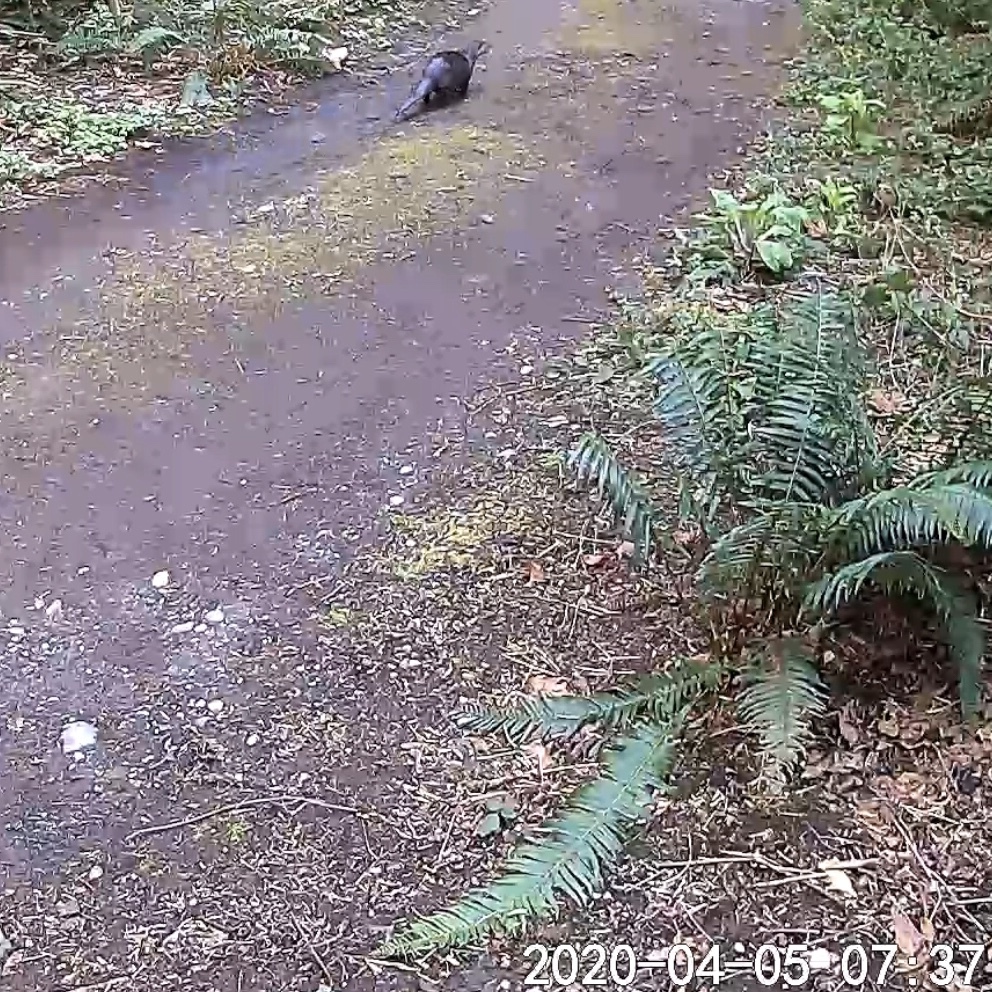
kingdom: Animalia
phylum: Chordata
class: Mammalia
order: Carnivora
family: Mustelidae
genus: Lontra
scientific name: Lontra canadensis
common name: North american river otter
